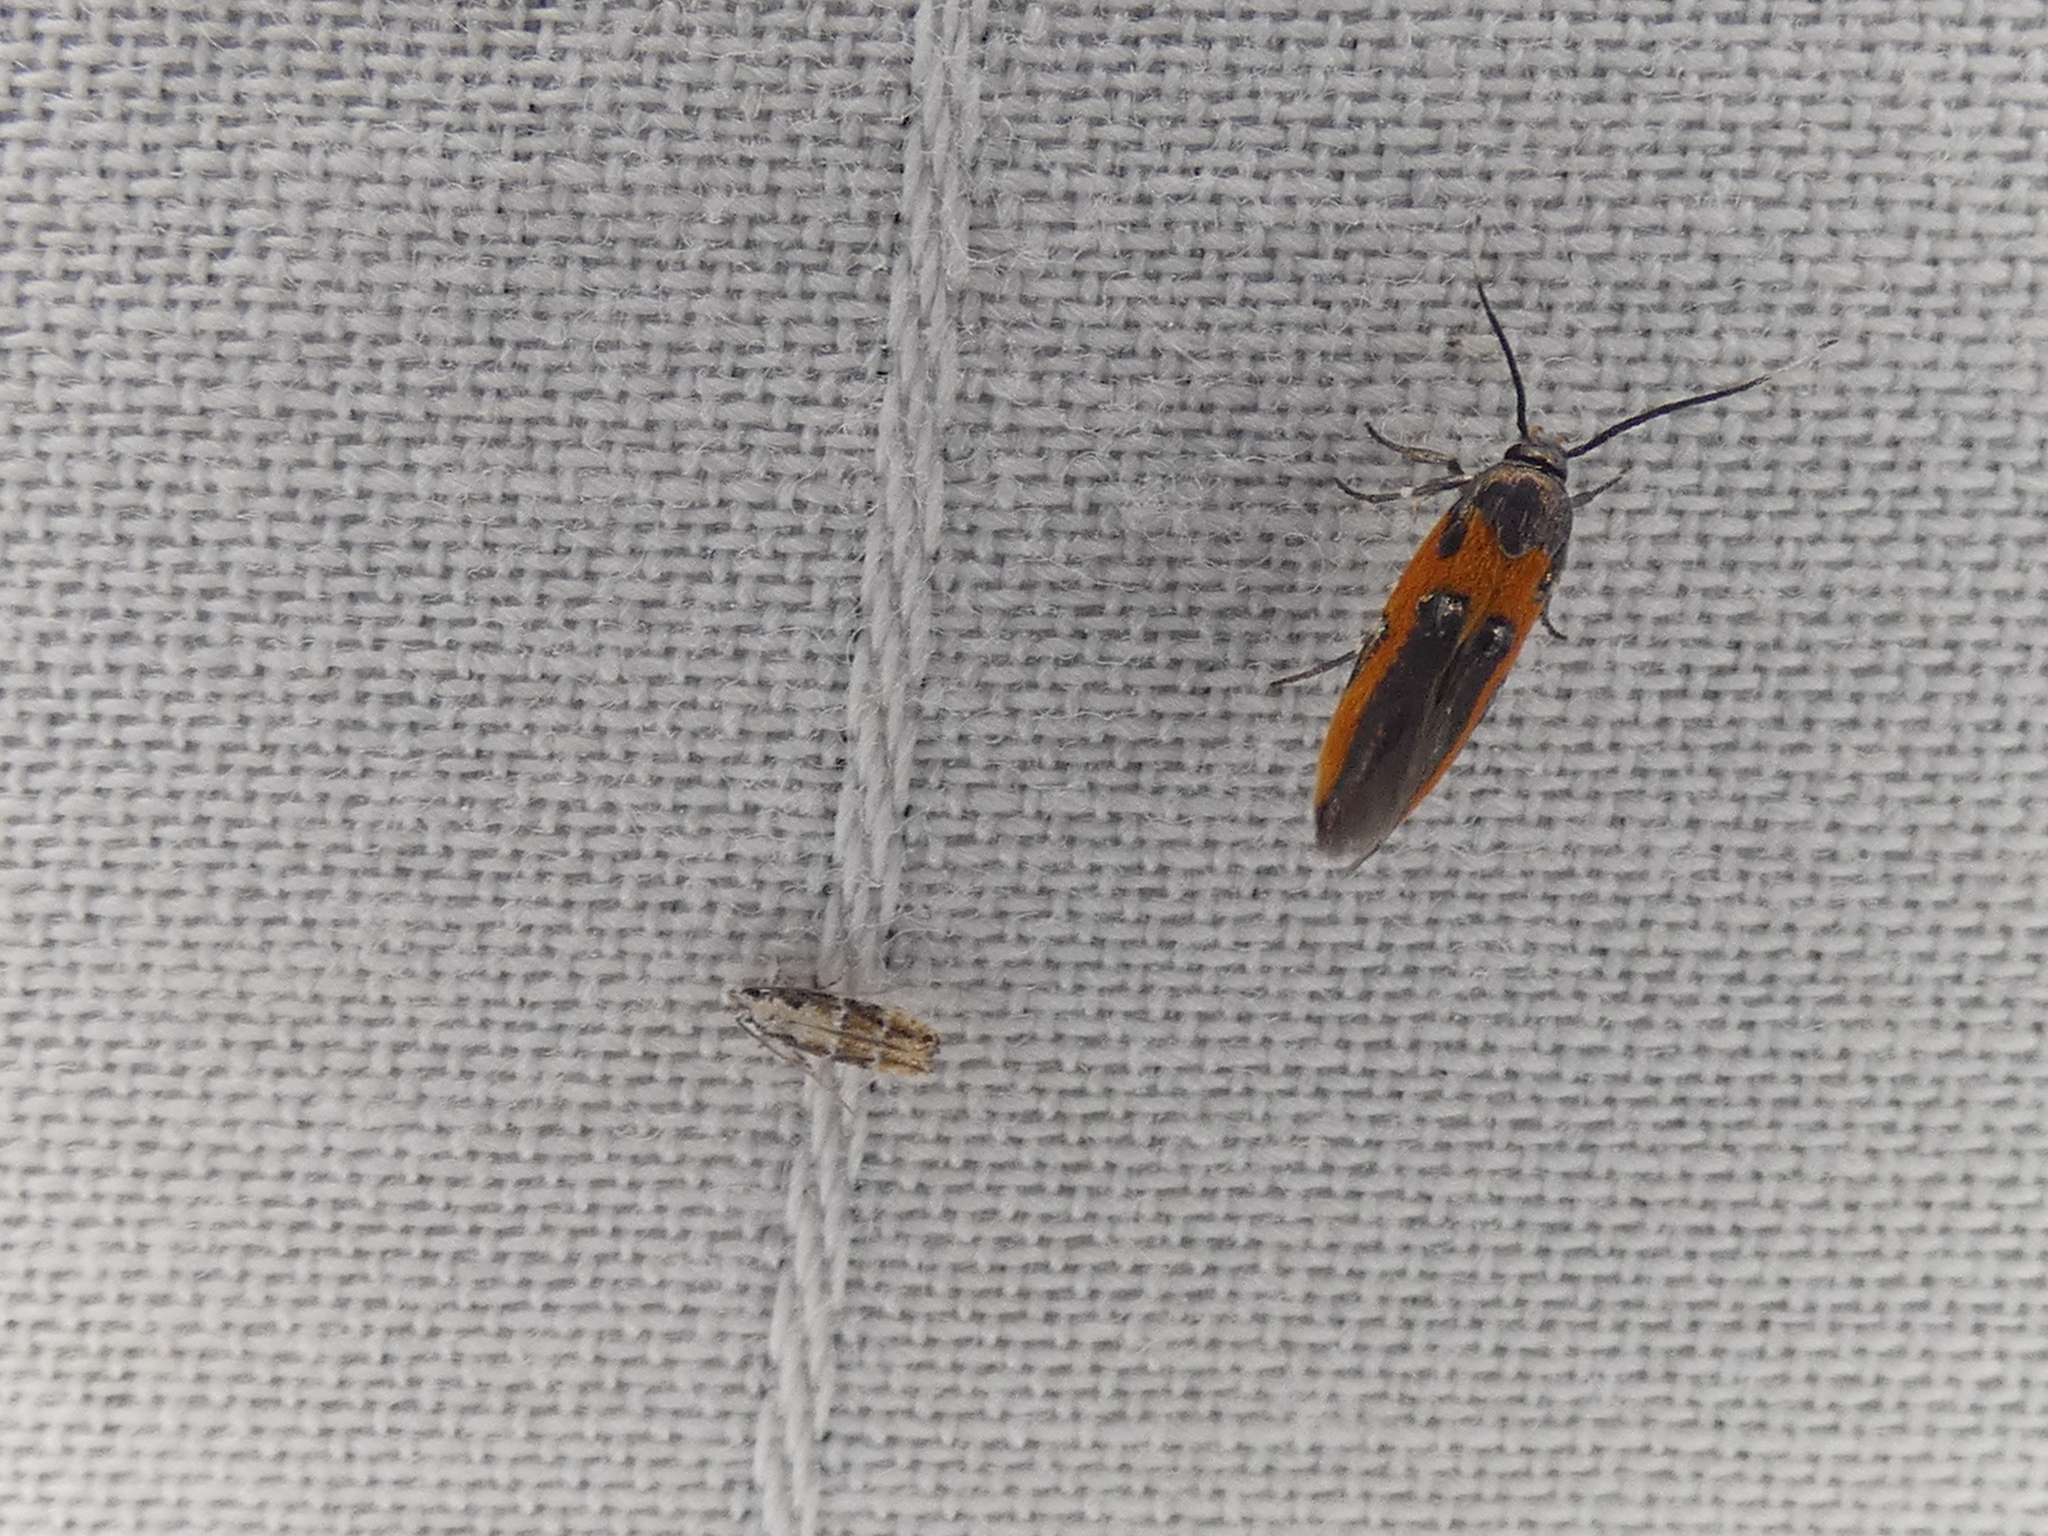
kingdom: Animalia
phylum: Arthropoda
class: Insecta
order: Lepidoptera
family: Cosmopterigidae
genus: Euclemensia
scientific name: Euclemensia bassettella
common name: Kermes scale moth
